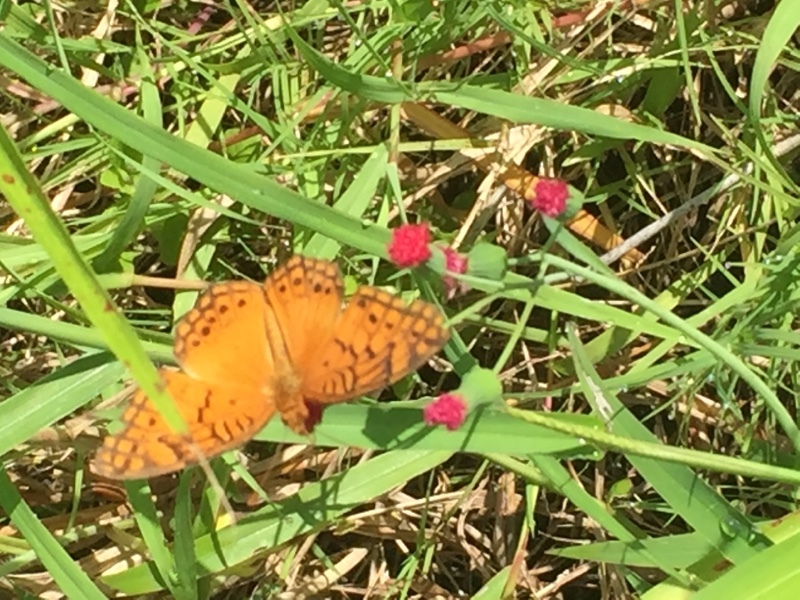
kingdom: Animalia
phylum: Arthropoda
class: Insecta
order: Lepidoptera
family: Nymphalidae
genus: Euptoieta
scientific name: Euptoieta hegesia
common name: Mexican fritillary
